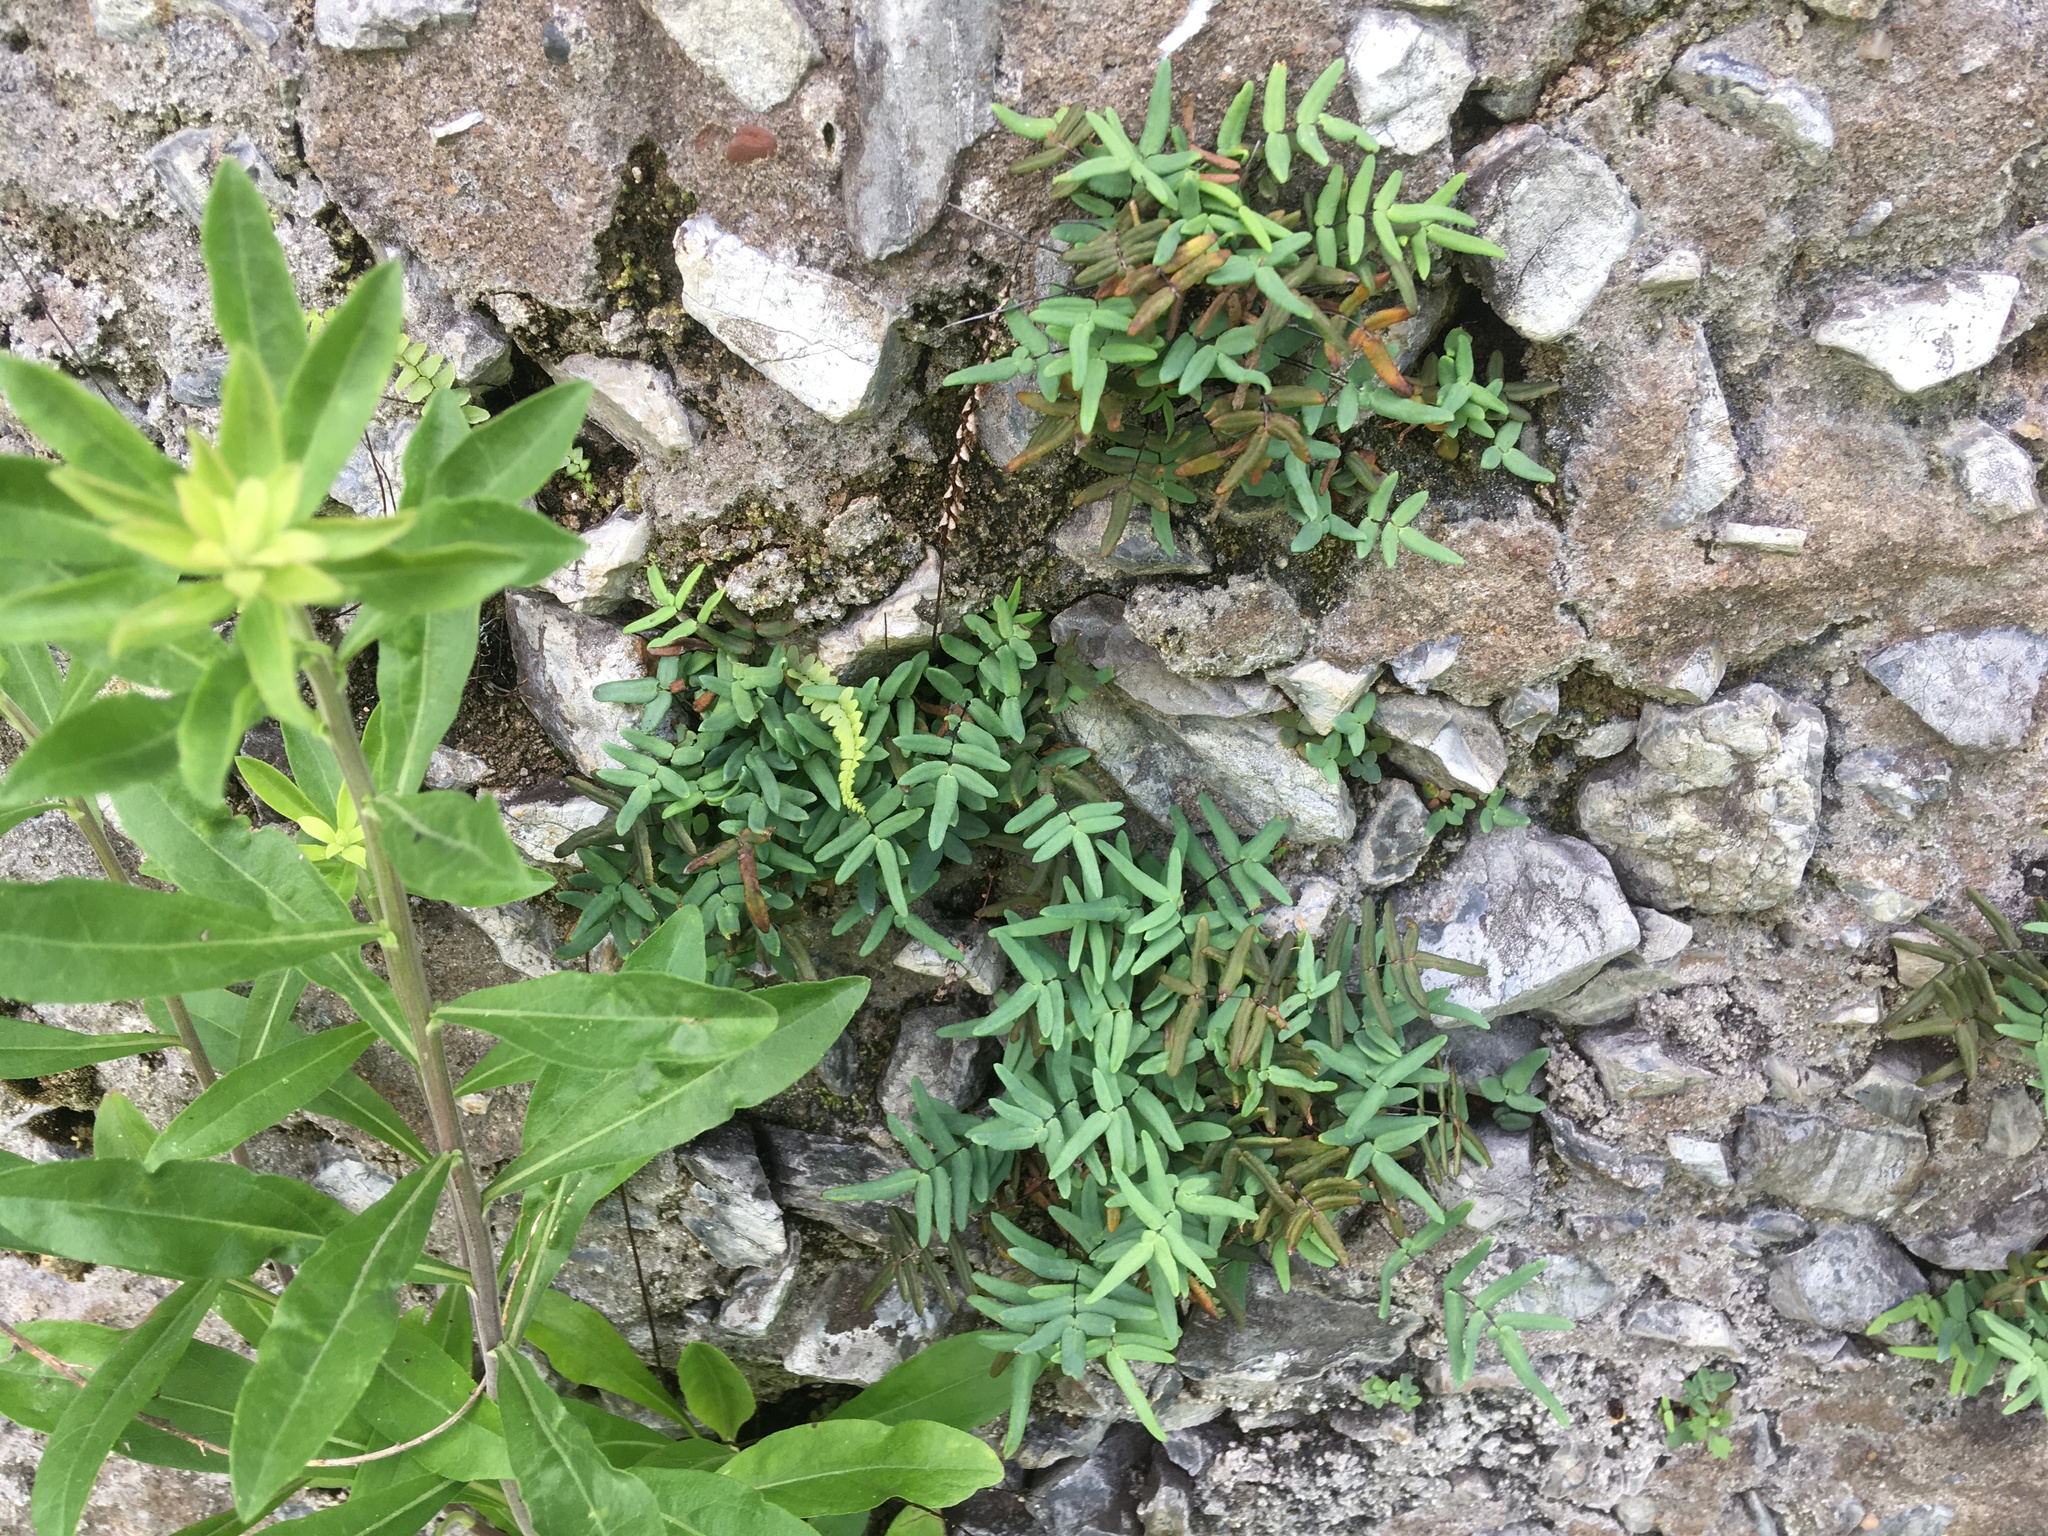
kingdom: Plantae
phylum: Tracheophyta
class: Polypodiopsida
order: Polypodiales
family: Pteridaceae
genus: Pellaea
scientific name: Pellaea glabella
